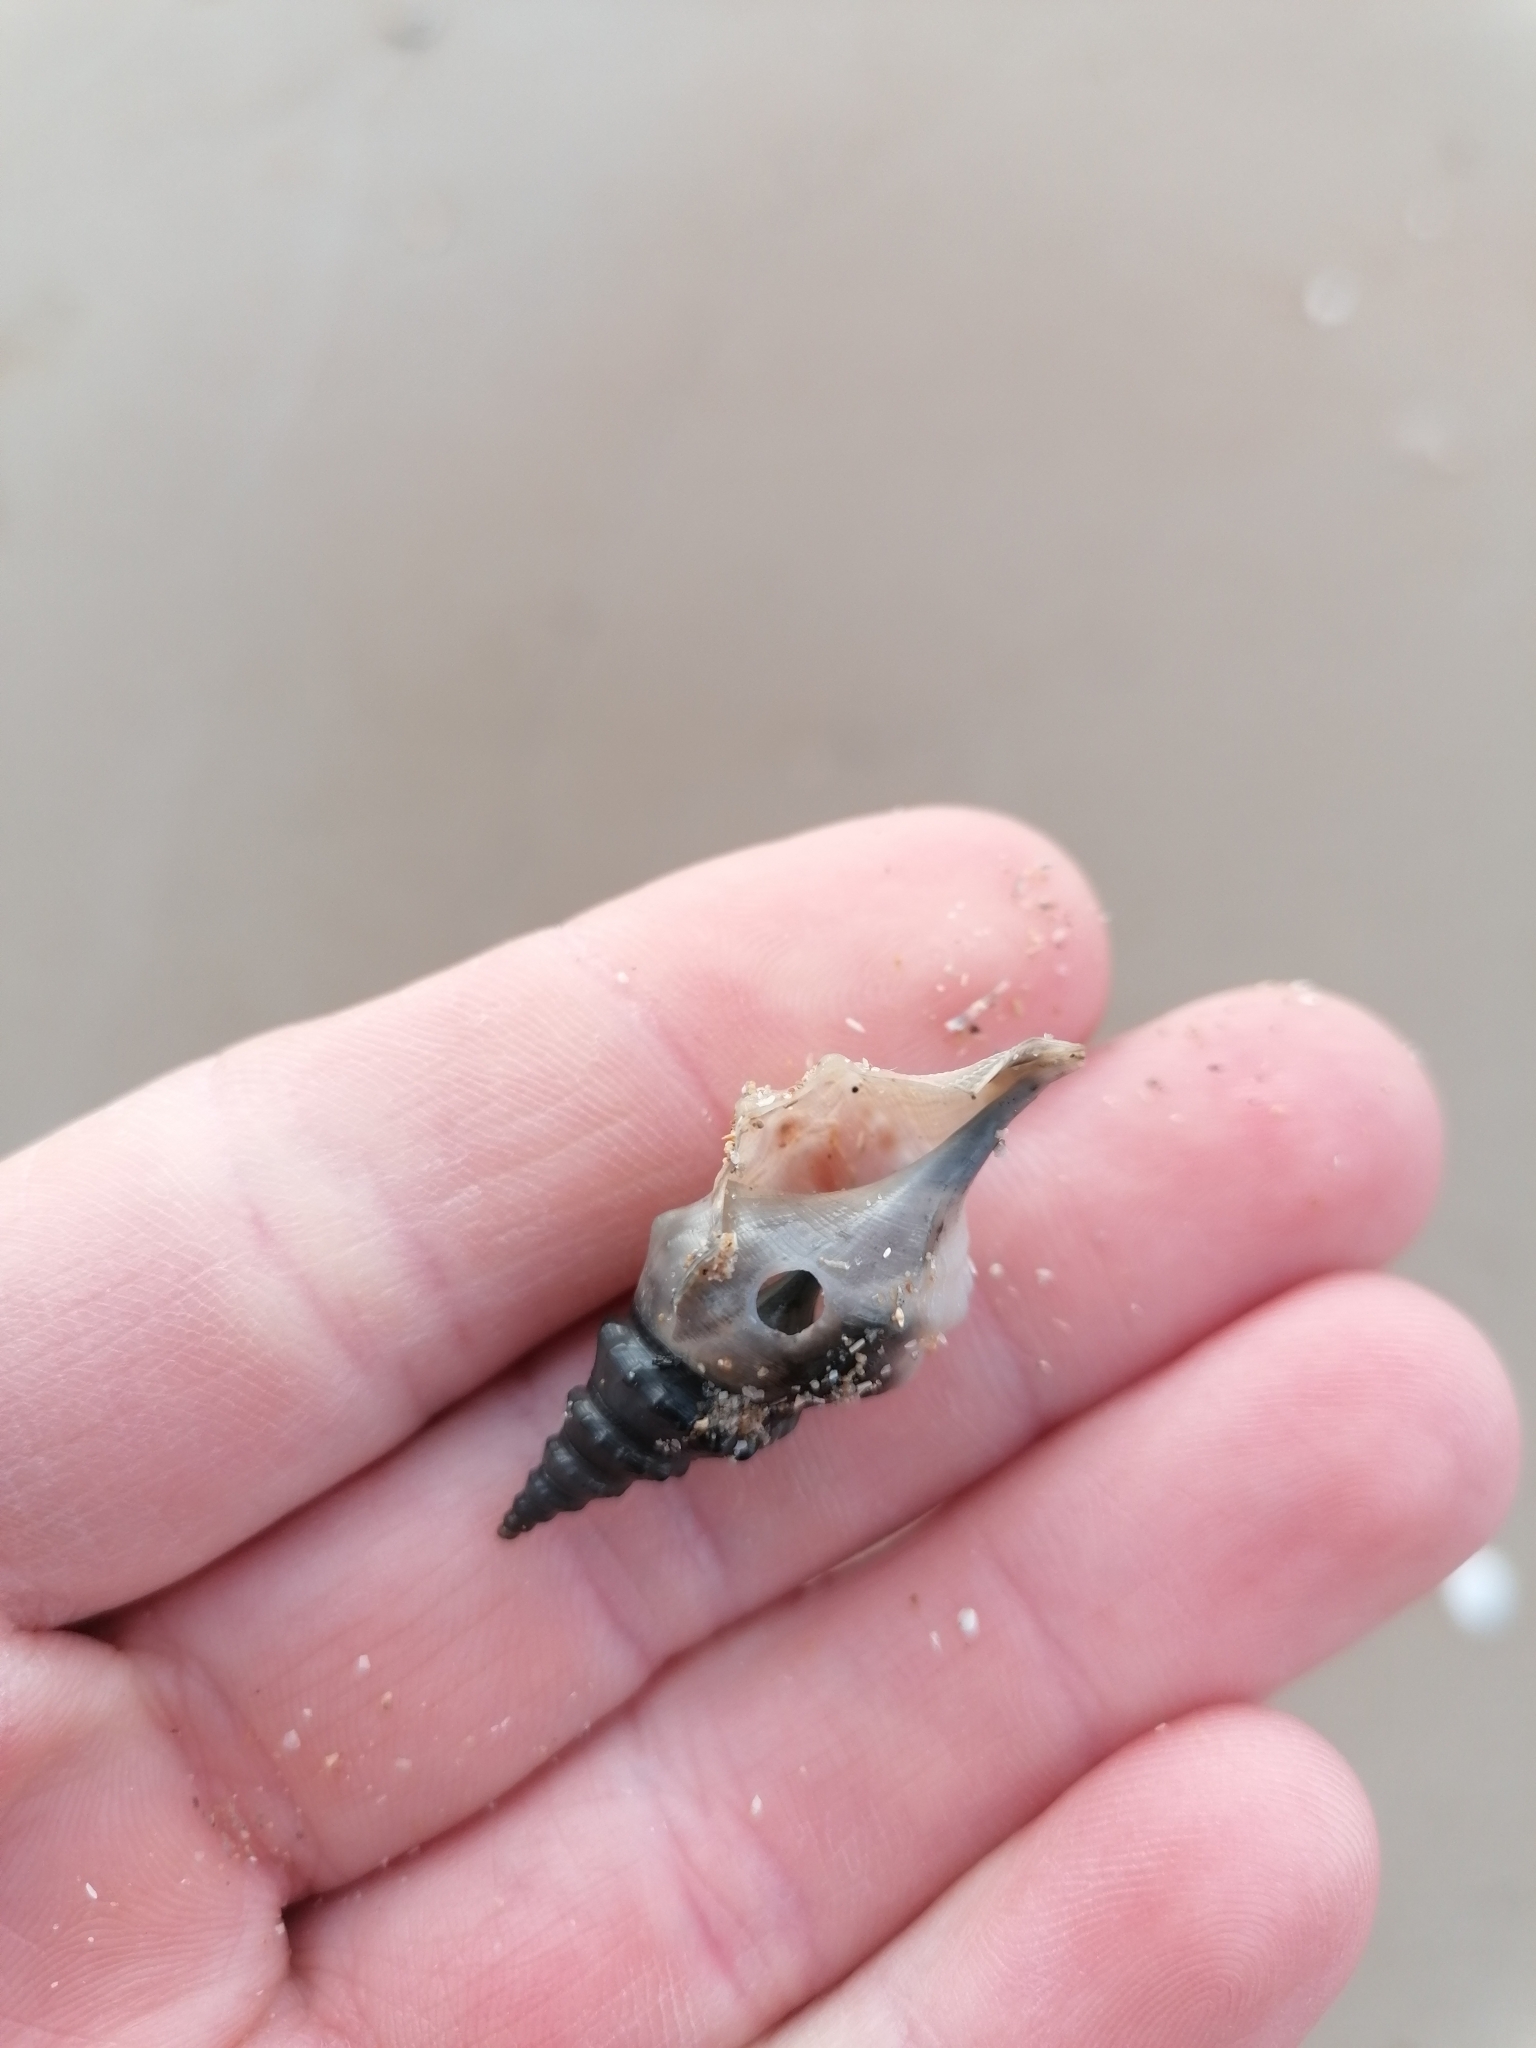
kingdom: Animalia
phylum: Mollusca
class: Gastropoda
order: Littorinimorpha
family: Aporrhaidae
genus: Aporrhais
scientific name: Aporrhais pespelecani
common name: Common pelican’s foot
